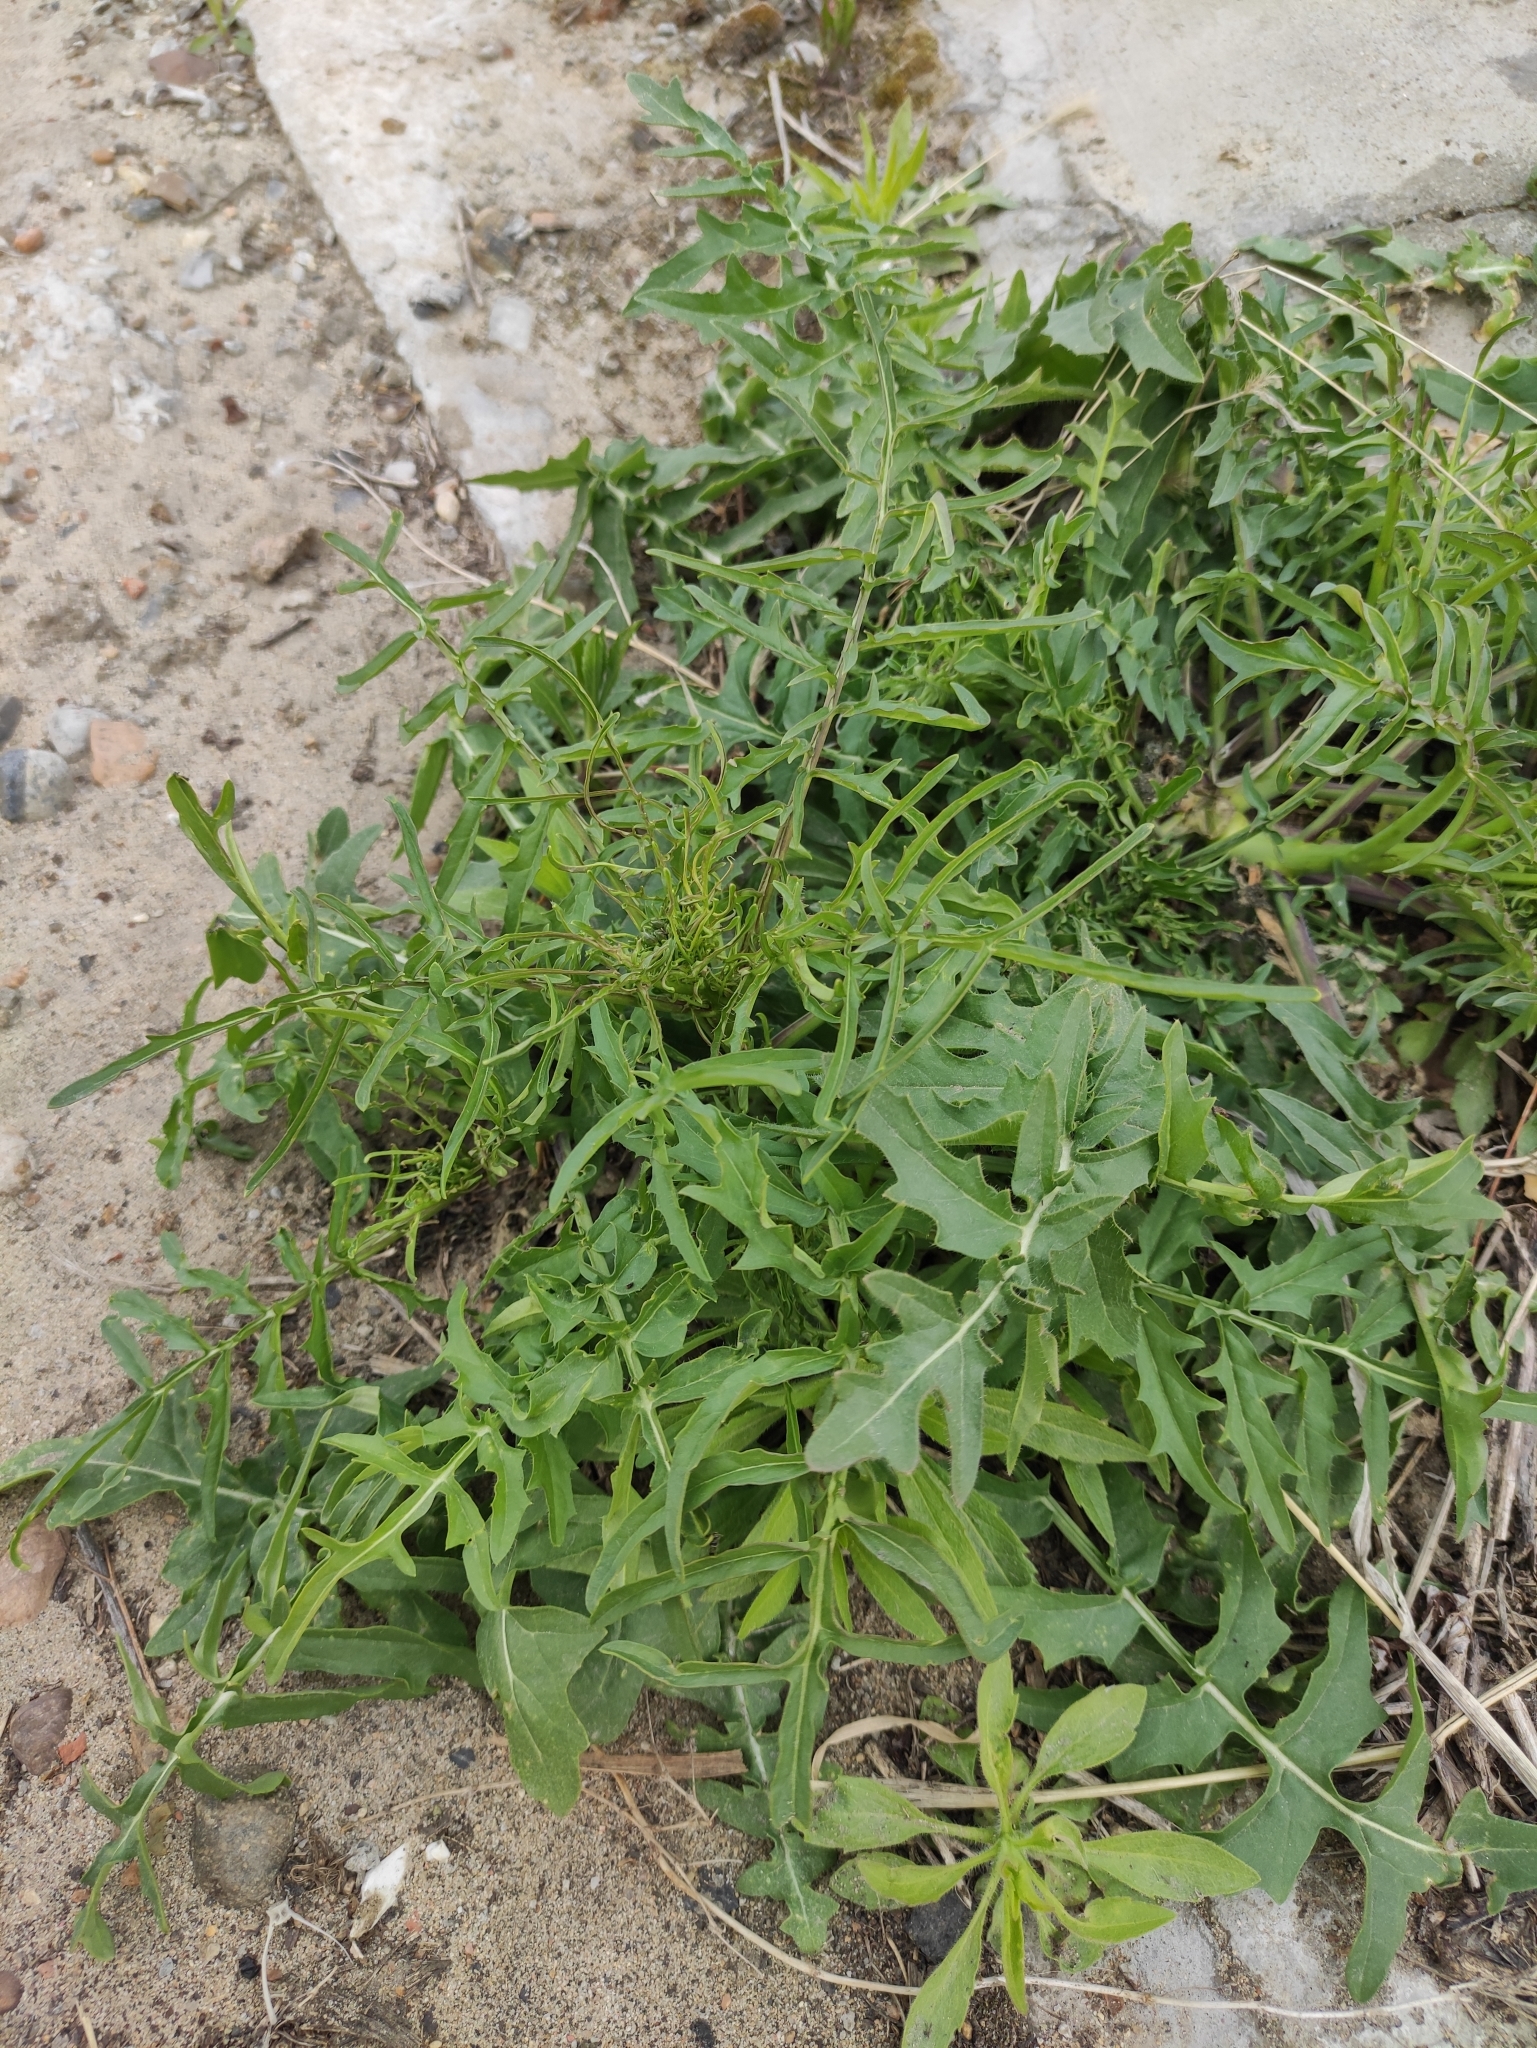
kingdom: Plantae
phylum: Tracheophyta
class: Magnoliopsida
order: Brassicales
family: Brassicaceae
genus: Sisymbrium
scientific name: Sisymbrium altissimum
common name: Tall rocket
